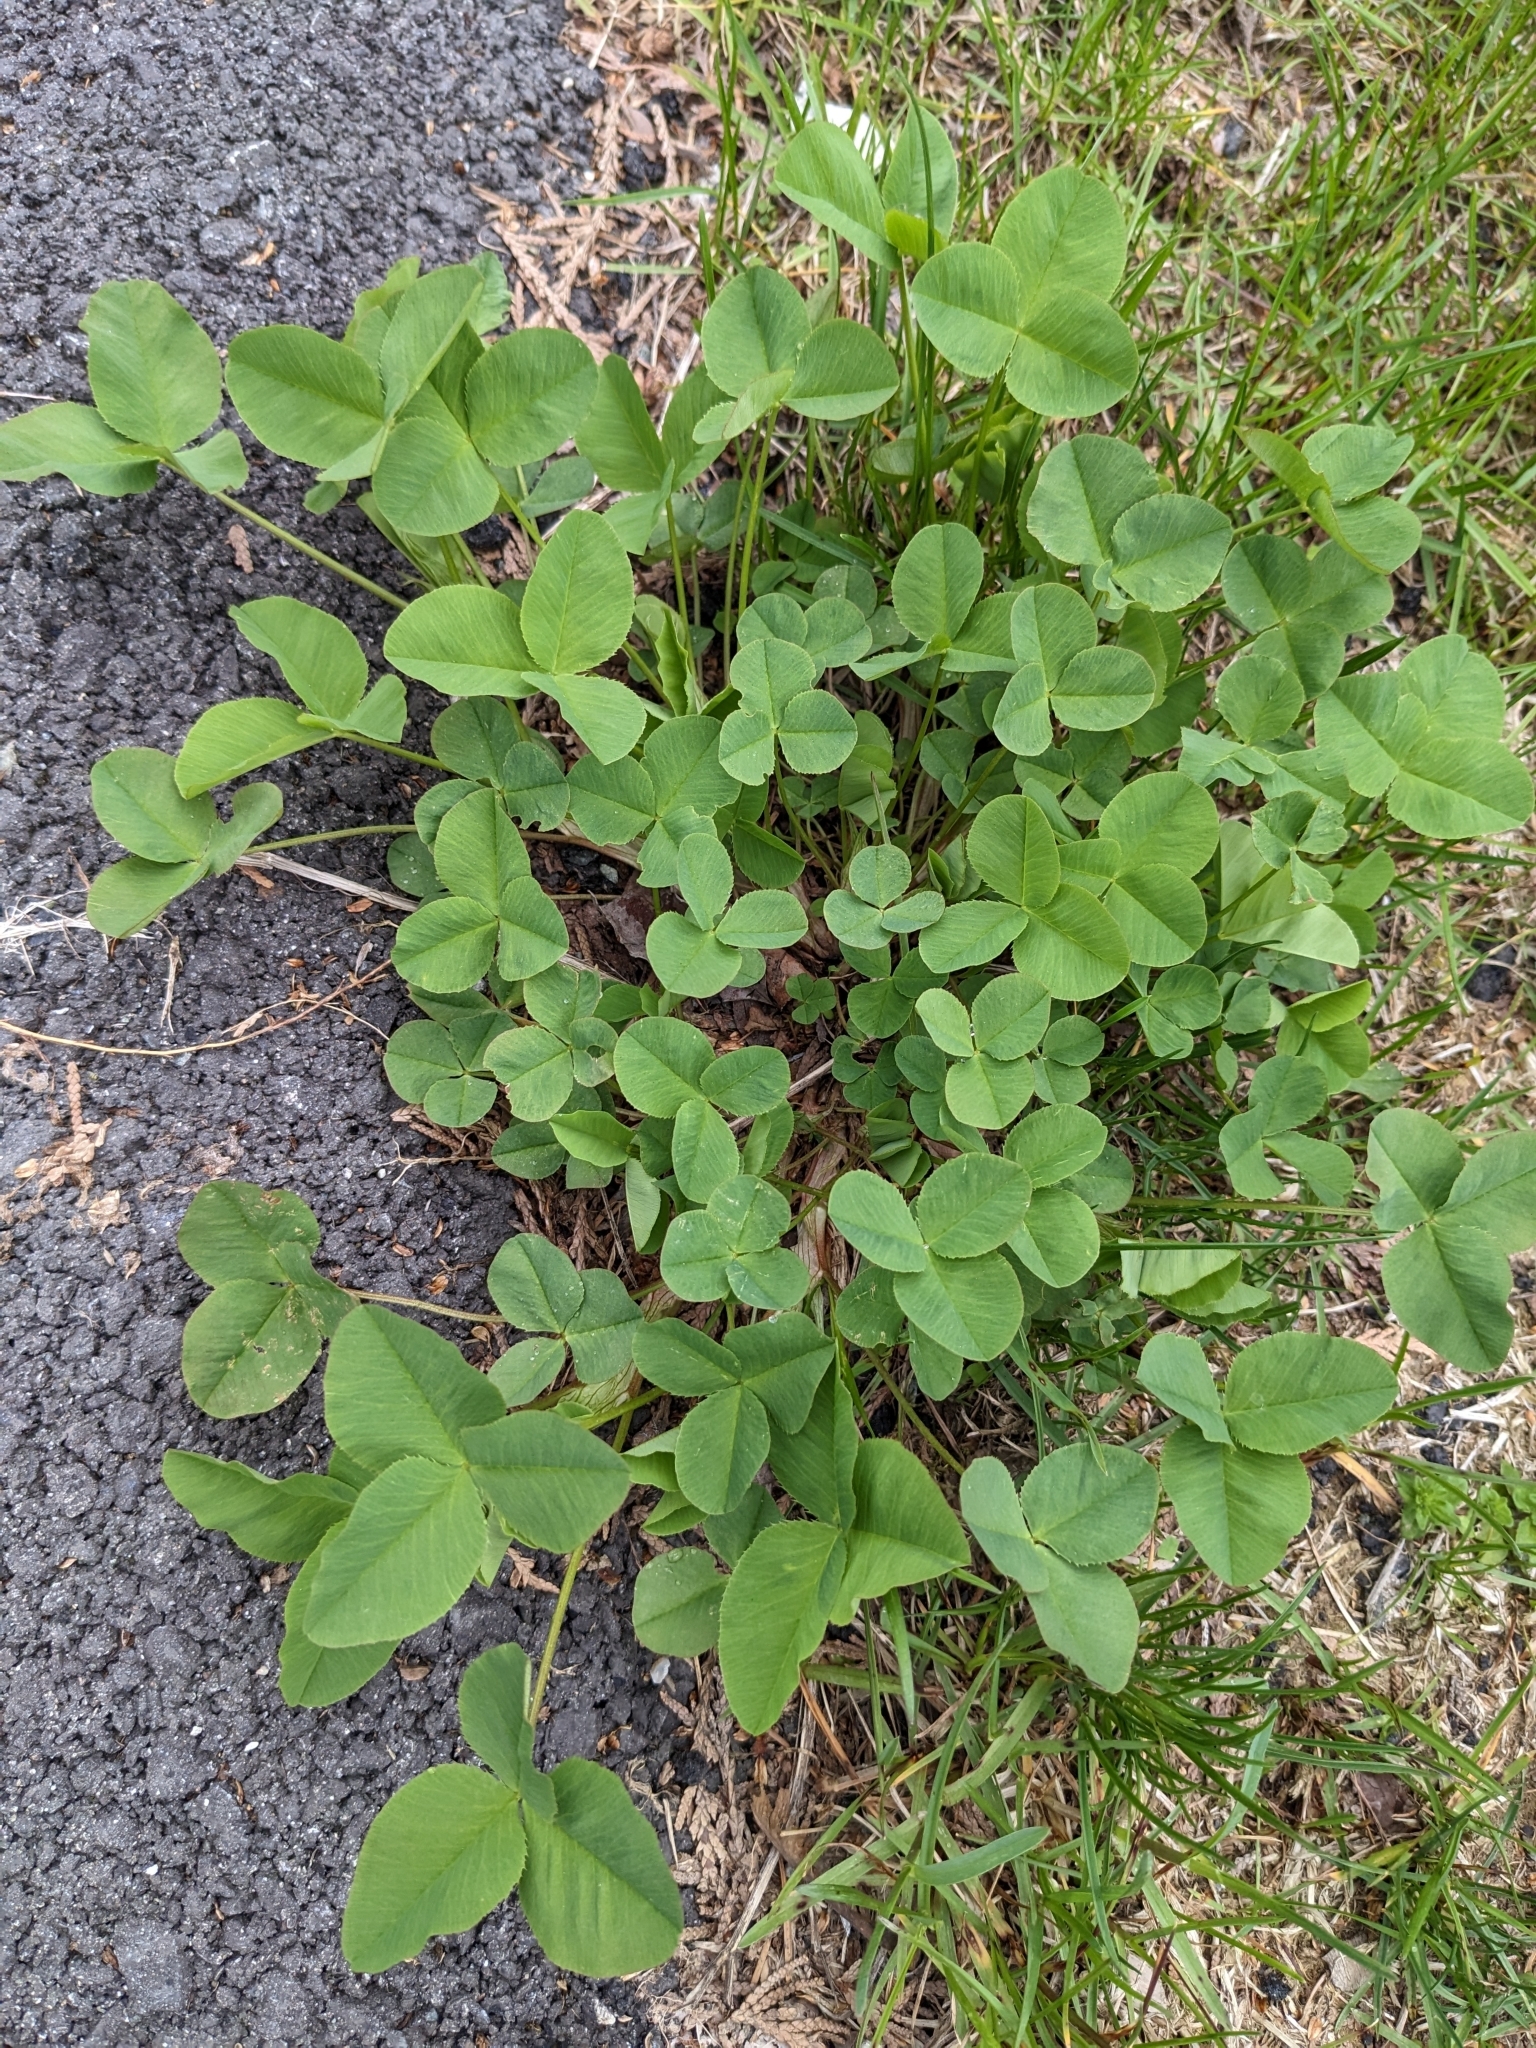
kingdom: Plantae
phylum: Tracheophyta
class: Magnoliopsida
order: Fabales
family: Fabaceae
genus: Trifolium
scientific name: Trifolium hybridum
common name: Alsike clover
